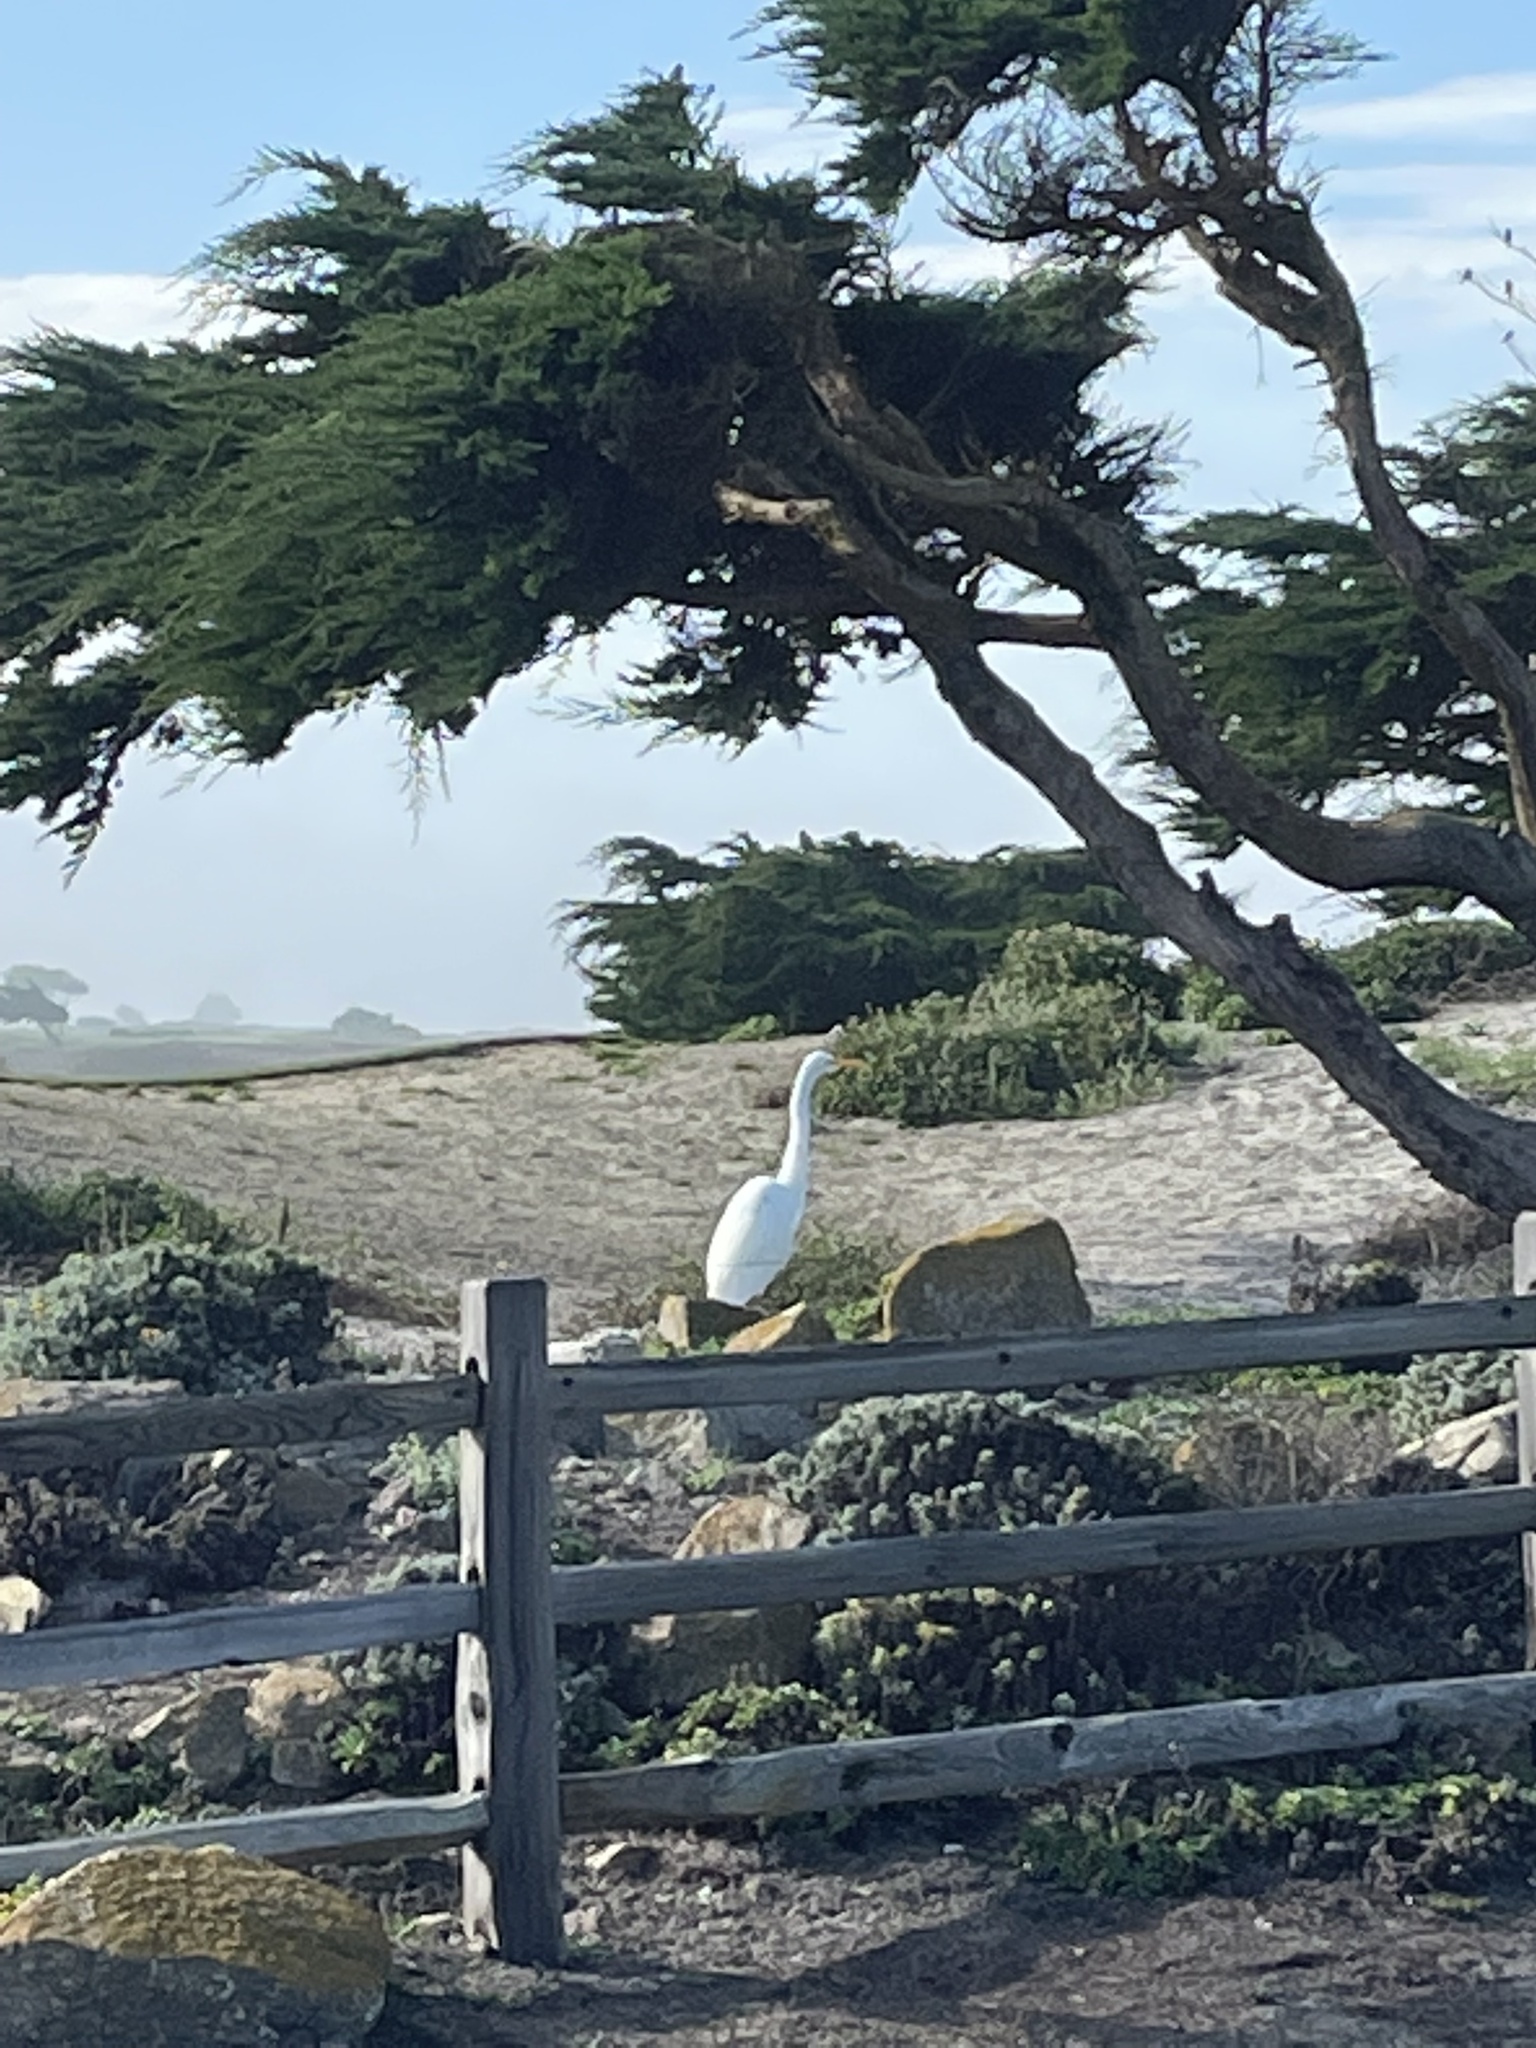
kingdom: Animalia
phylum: Chordata
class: Aves
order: Pelecaniformes
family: Ardeidae
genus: Ardea
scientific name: Ardea alba
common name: Great egret
